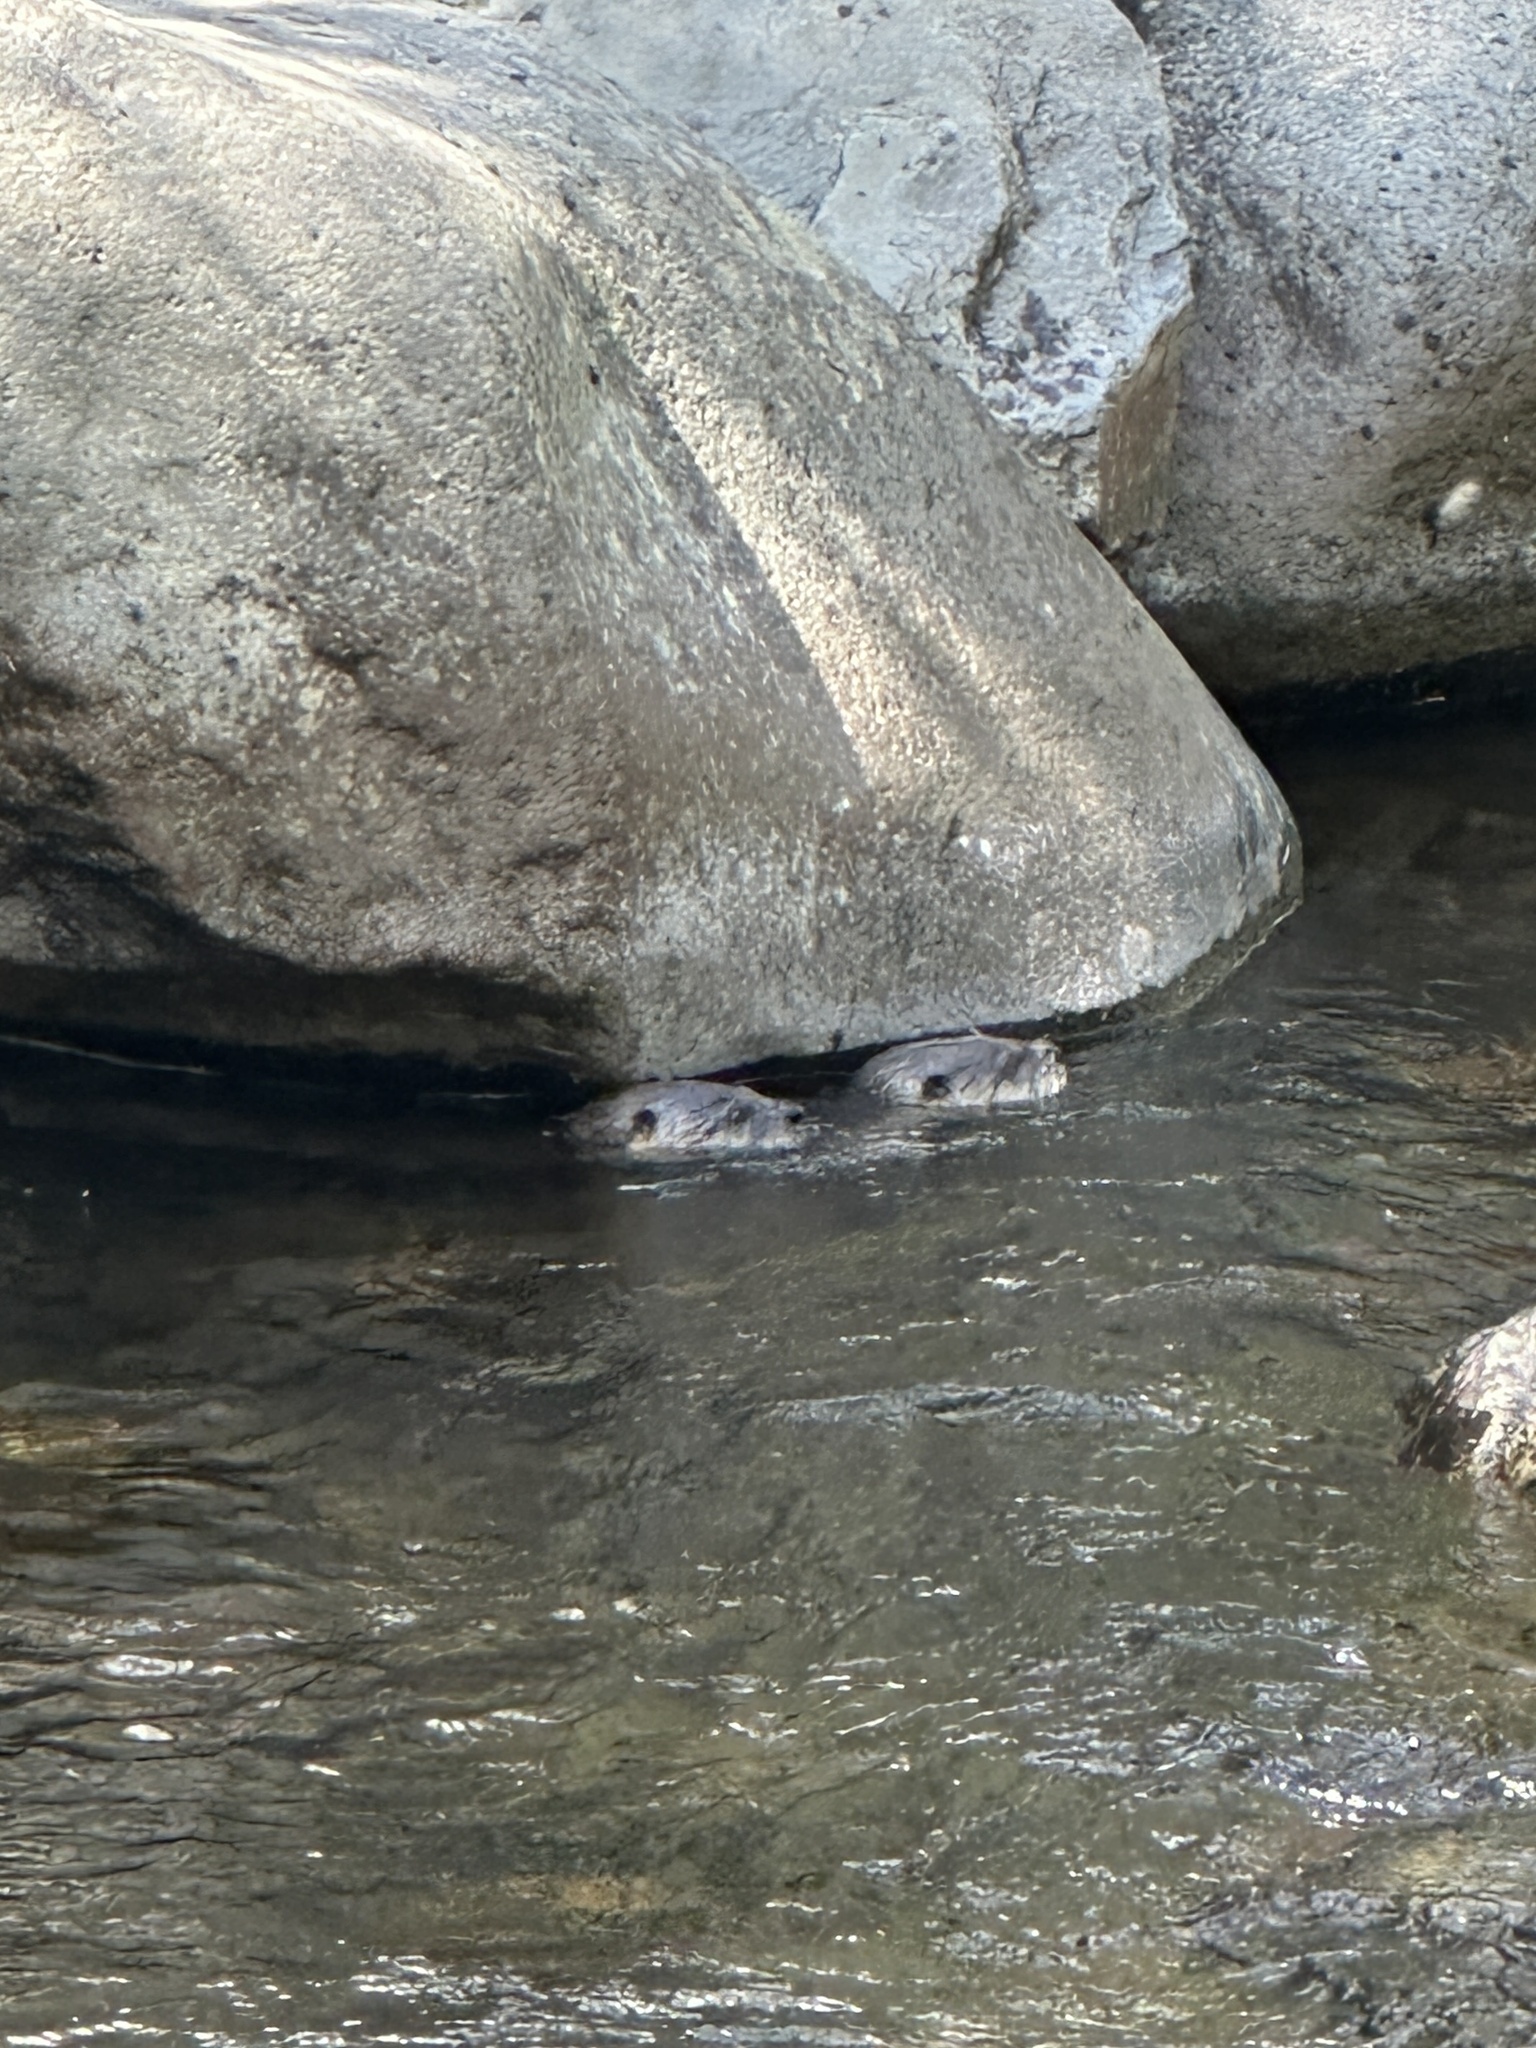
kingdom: Animalia
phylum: Chordata
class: Mammalia
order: Carnivora
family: Mustelidae
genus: Lontra
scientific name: Lontra canadensis
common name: North american river otter
